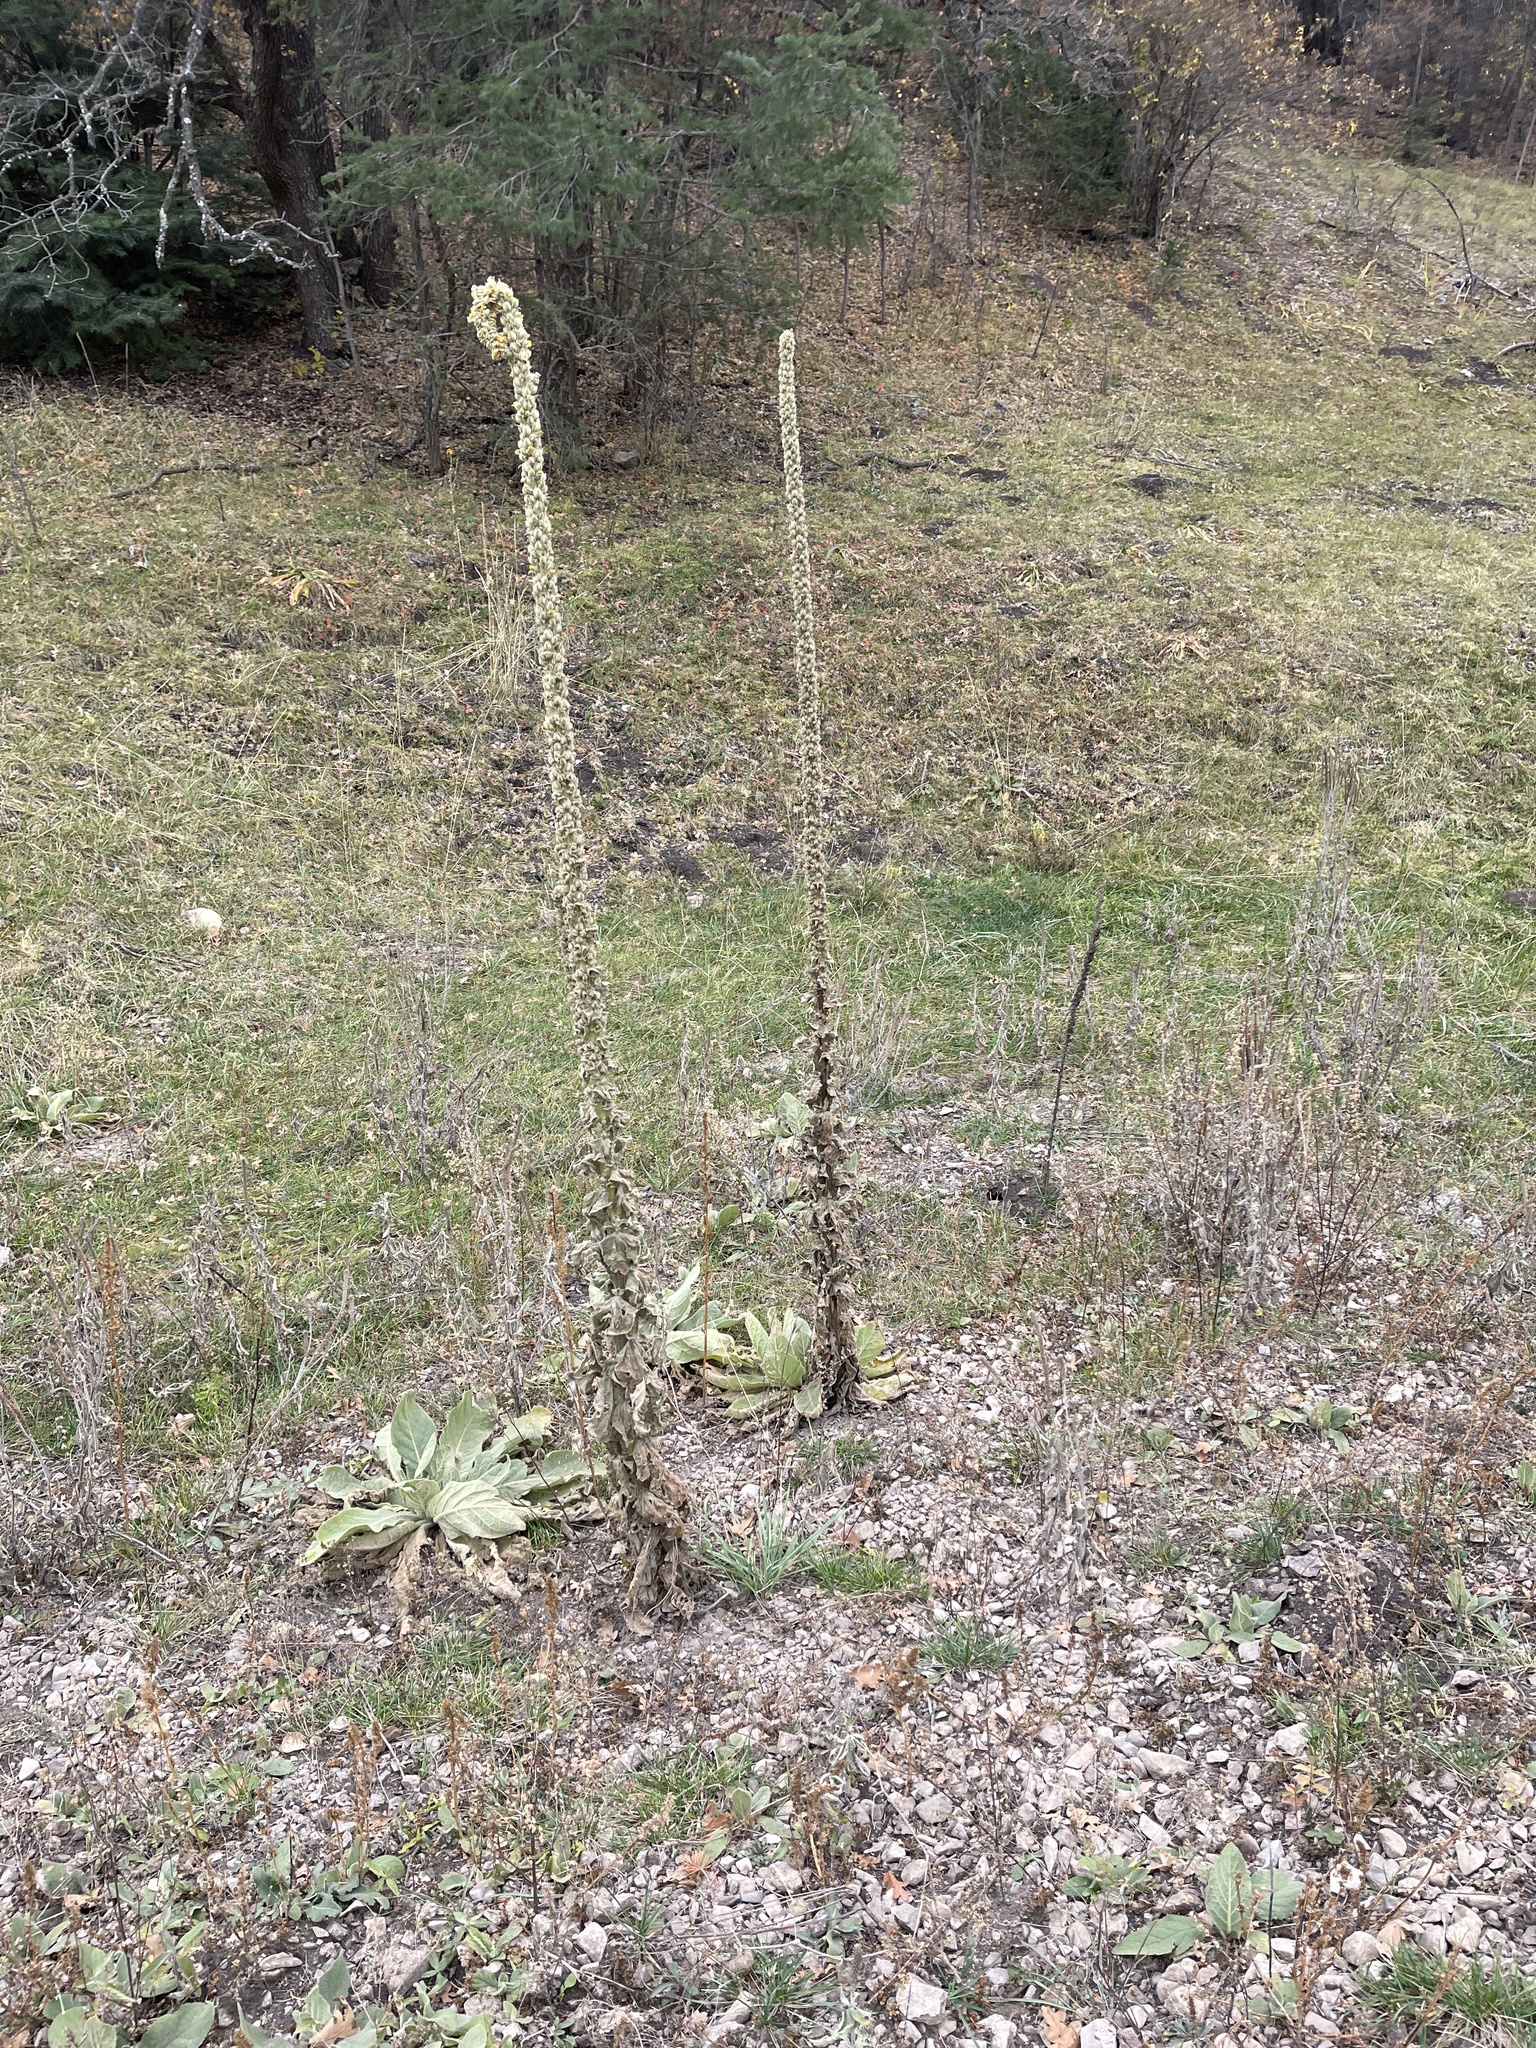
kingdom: Plantae
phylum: Tracheophyta
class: Magnoliopsida
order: Lamiales
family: Scrophulariaceae
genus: Verbascum
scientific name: Verbascum thapsus
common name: Common mullein
